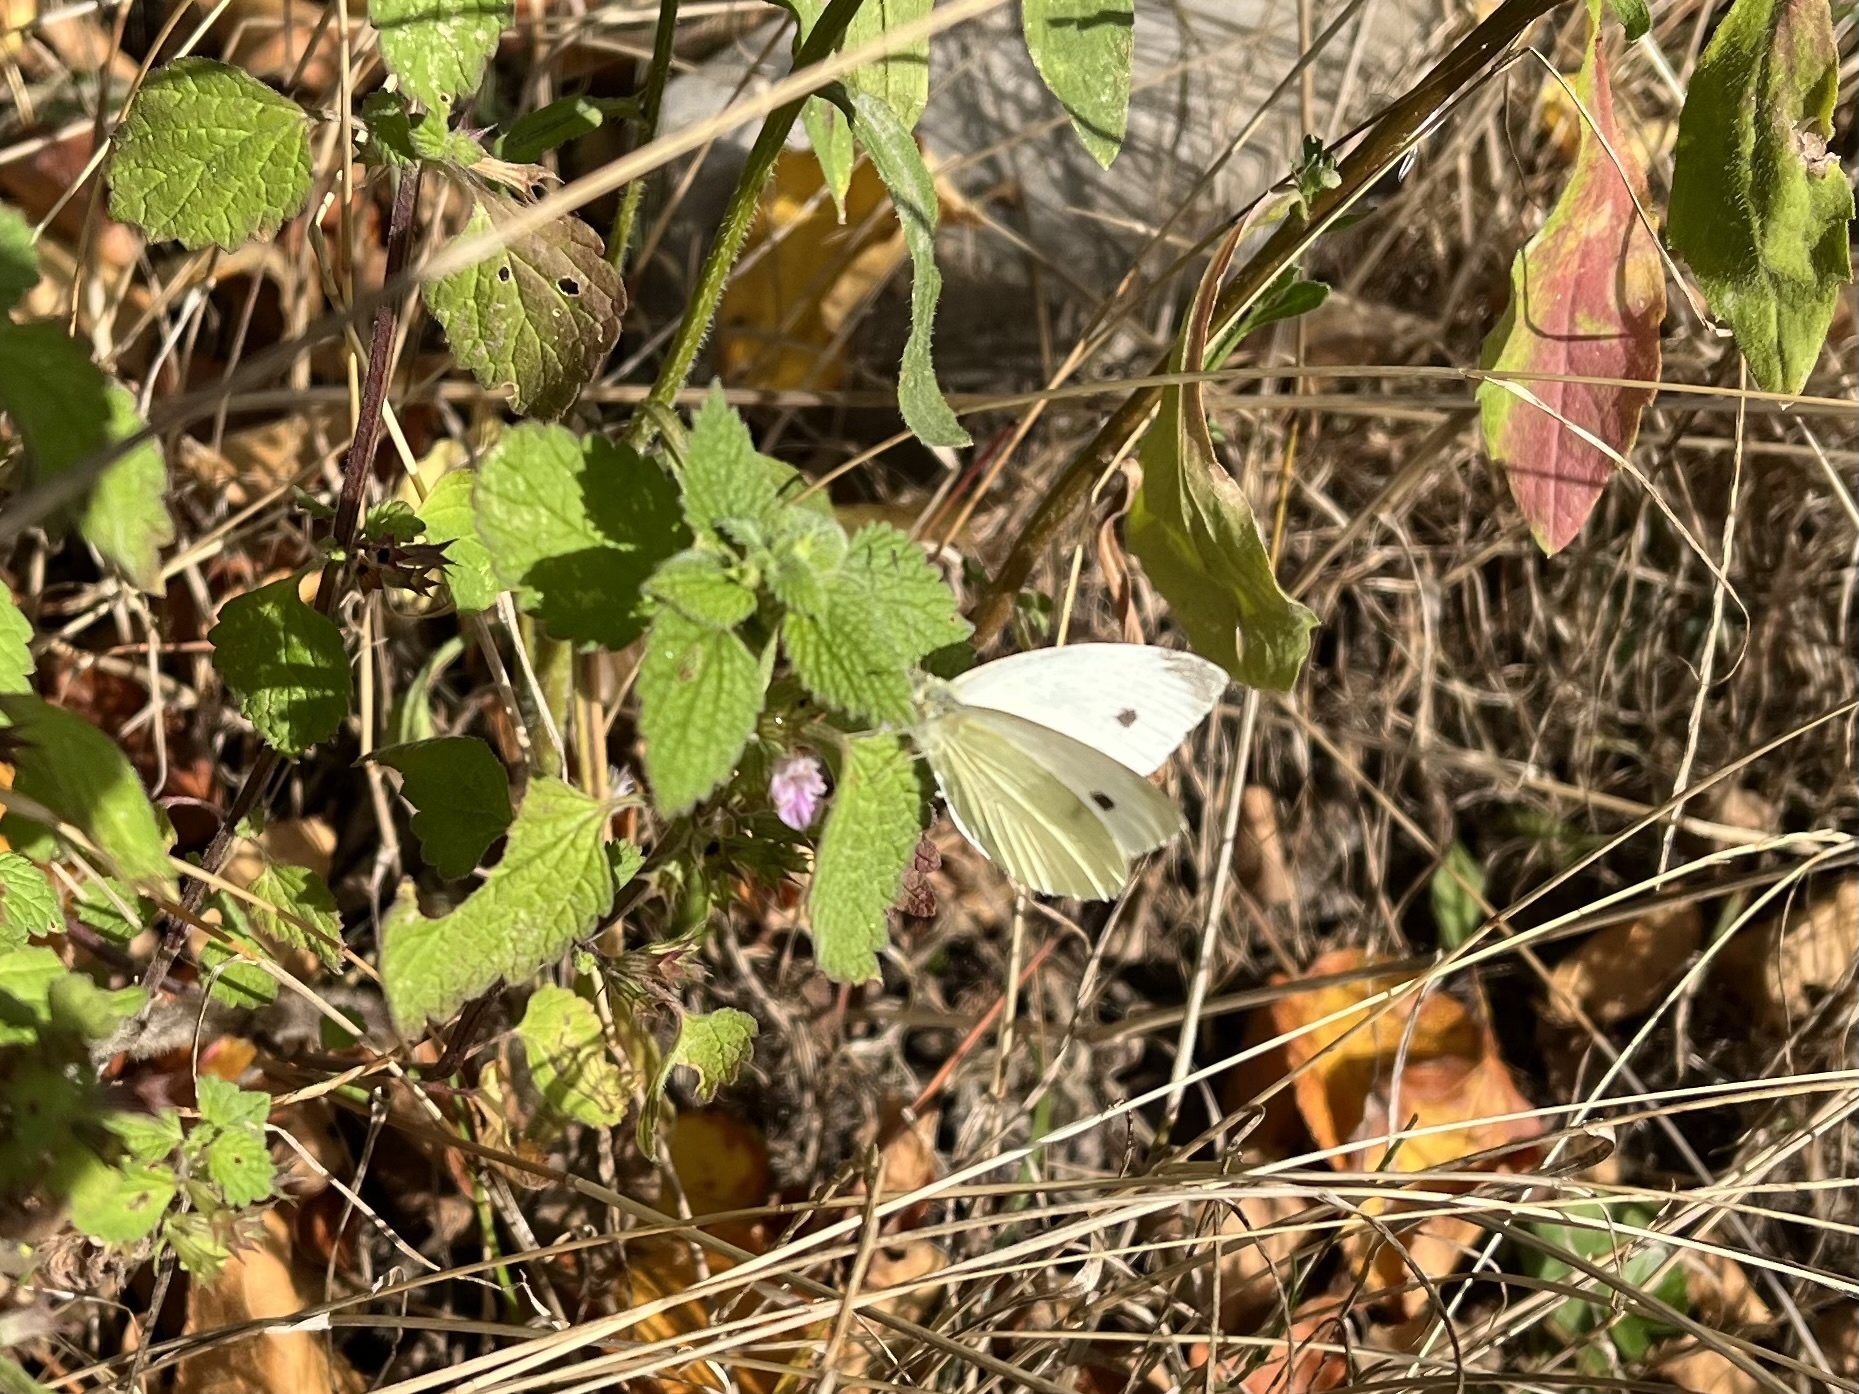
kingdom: Animalia
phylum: Arthropoda
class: Insecta
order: Lepidoptera
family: Pieridae
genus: Pieris
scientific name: Pieris rapae
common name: Small white
